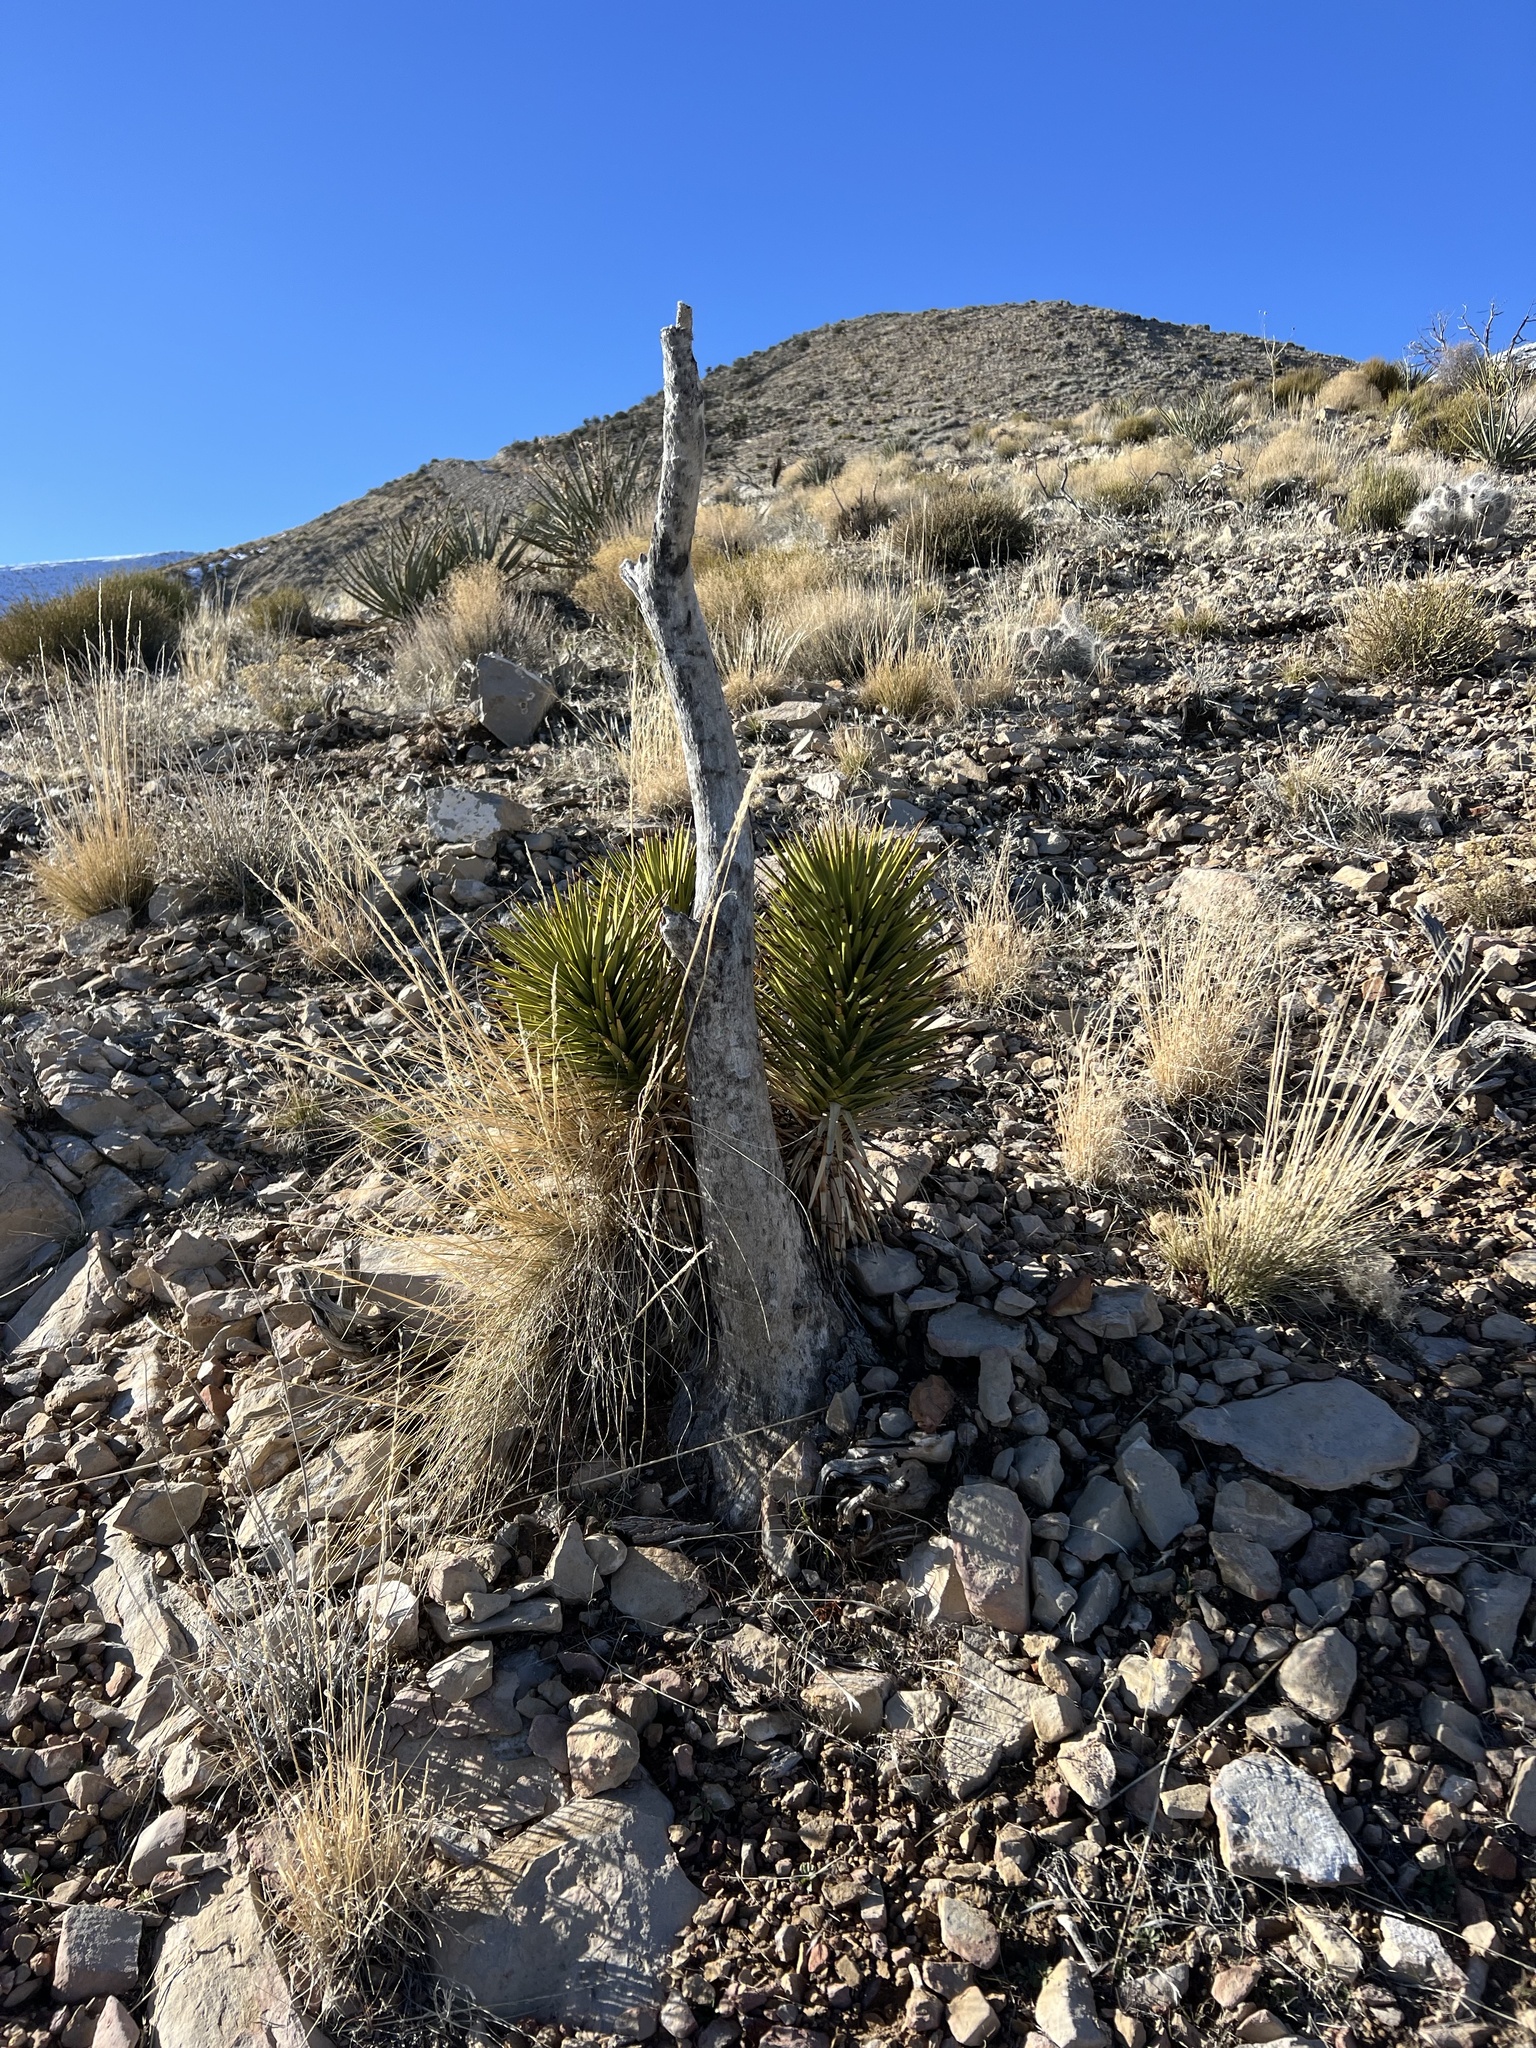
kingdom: Plantae
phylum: Tracheophyta
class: Liliopsida
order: Asparagales
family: Asparagaceae
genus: Yucca
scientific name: Yucca brevifolia
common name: Joshua tree
